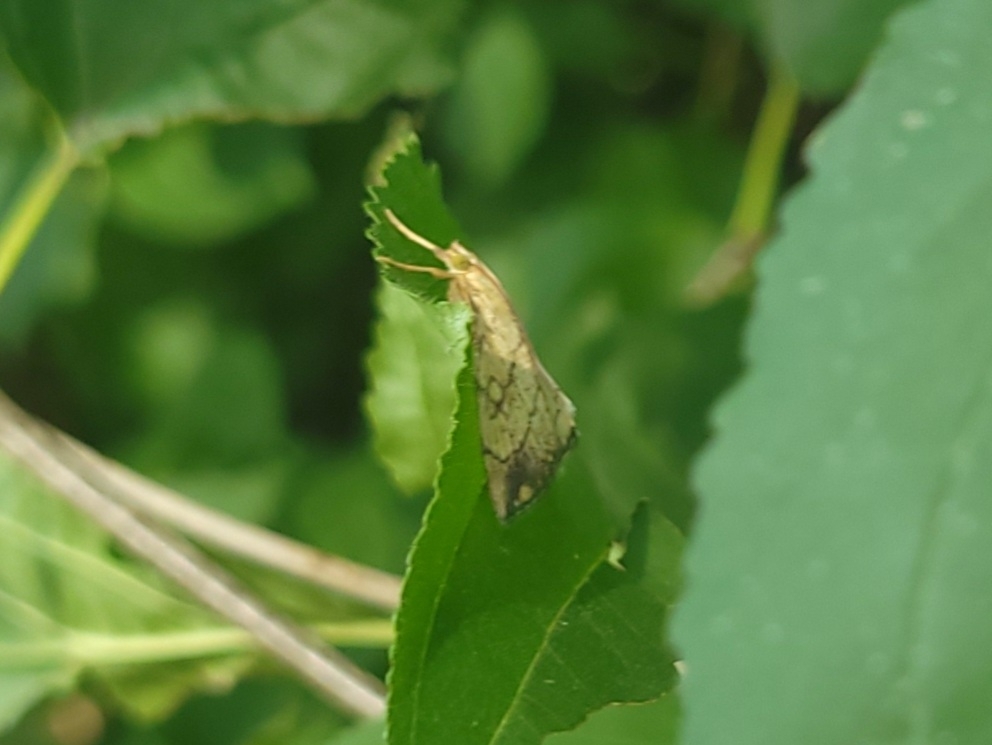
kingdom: Animalia
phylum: Arthropoda
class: Insecta
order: Lepidoptera
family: Crambidae
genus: Evergestis
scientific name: Evergestis pallidata
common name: Chequered pearl
